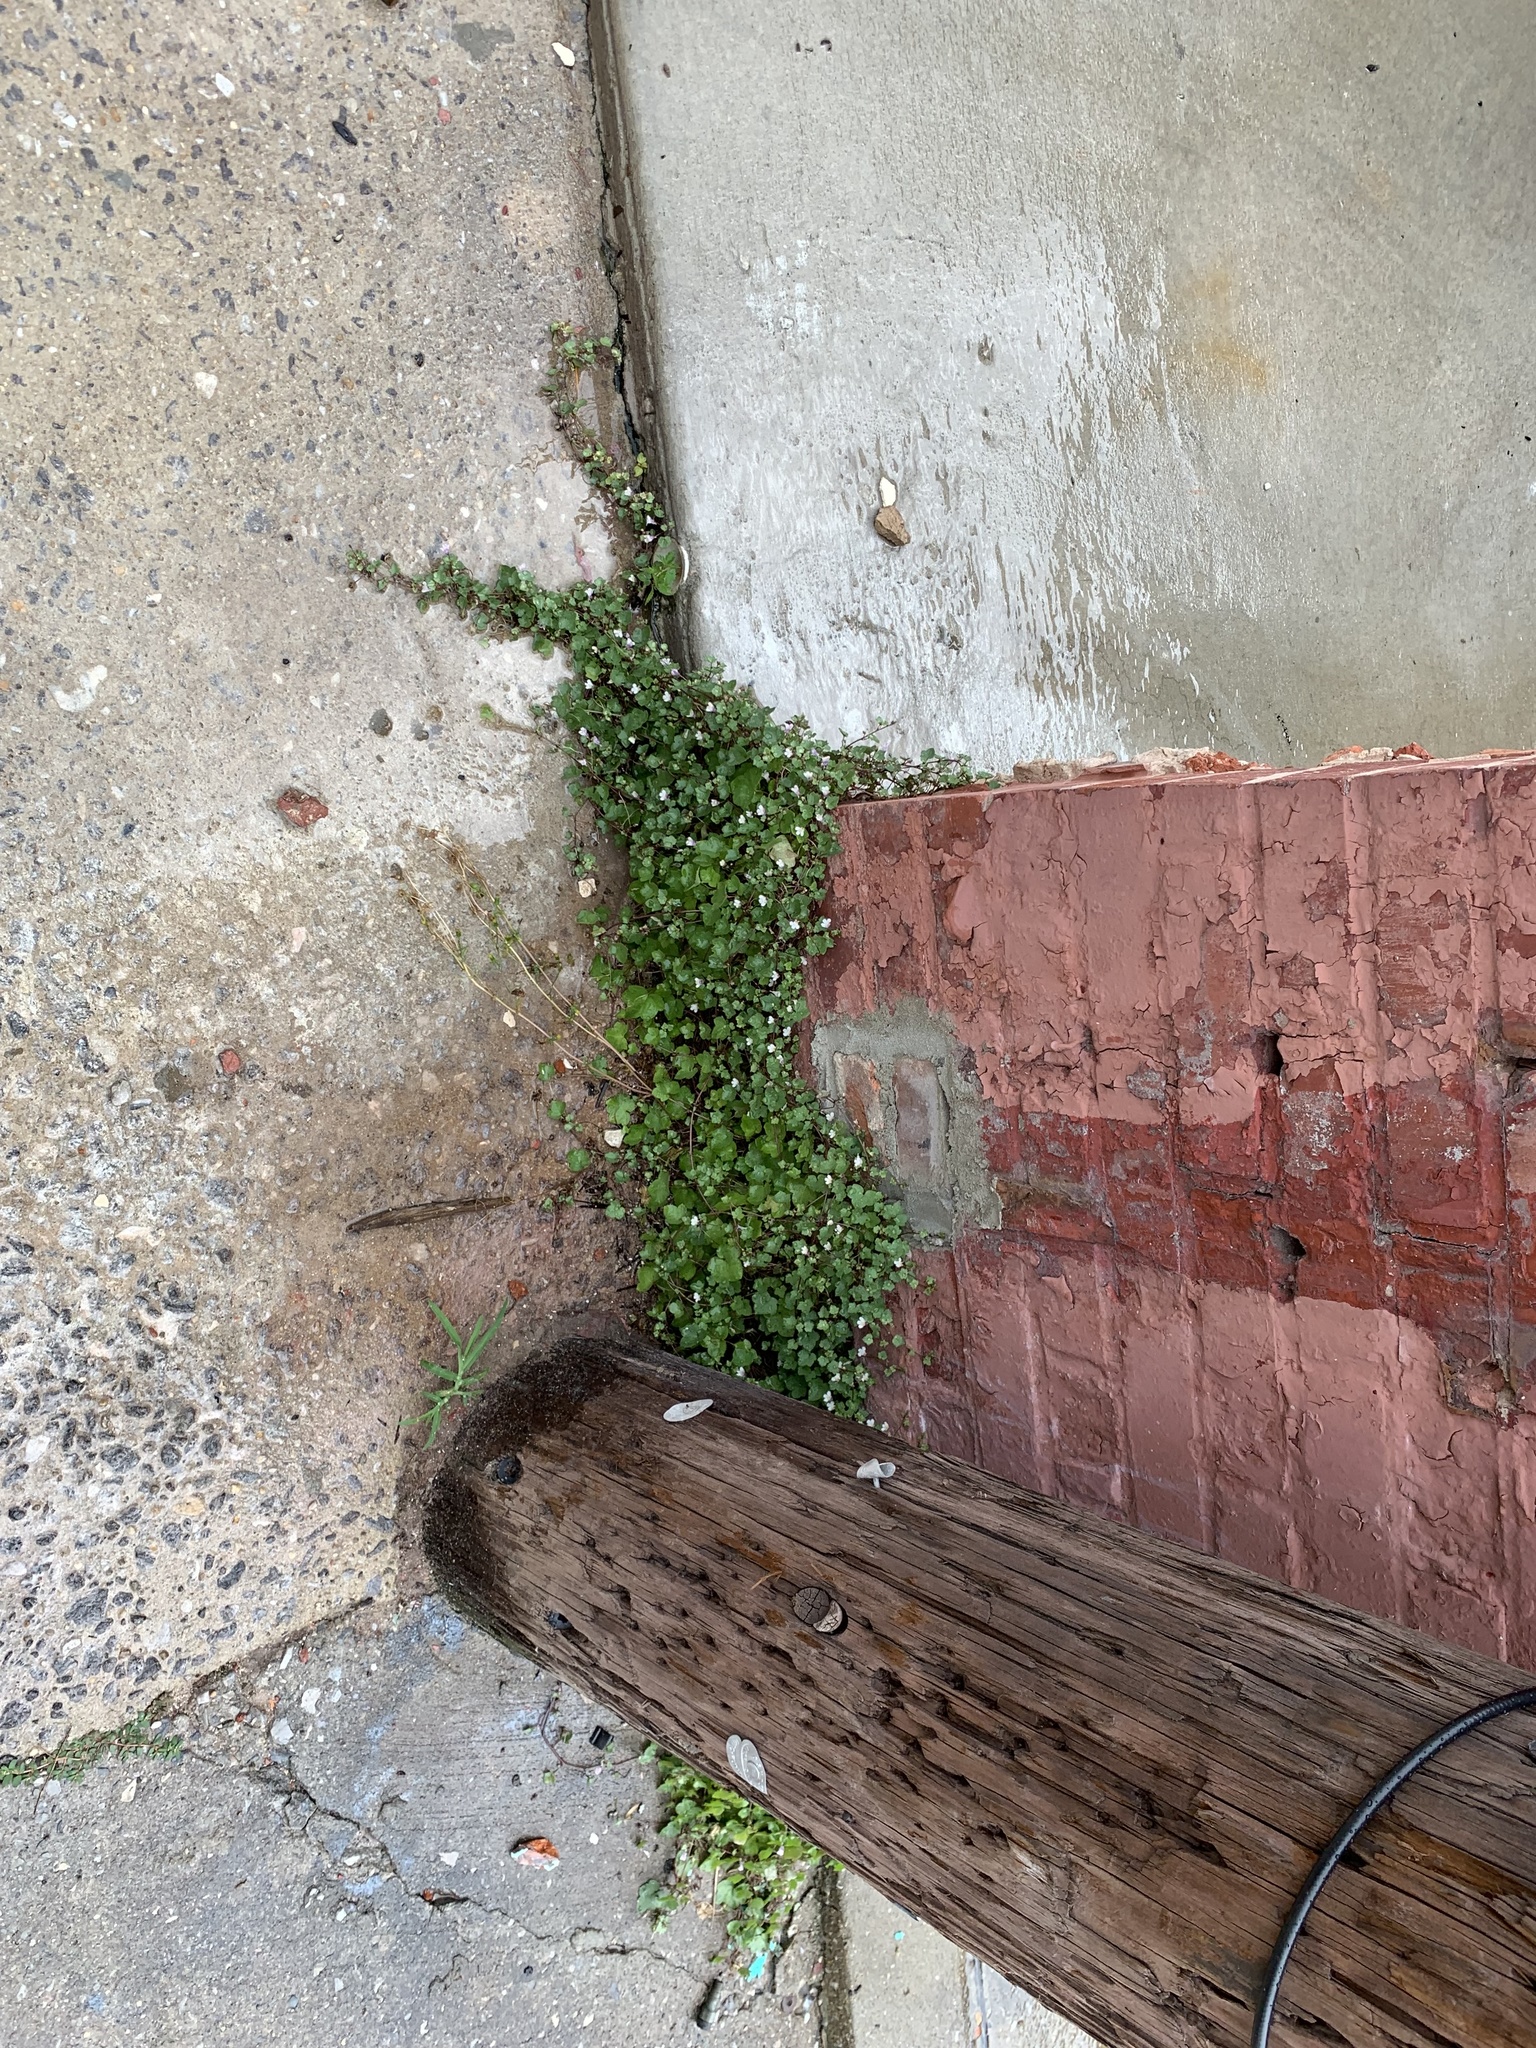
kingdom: Plantae
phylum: Tracheophyta
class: Magnoliopsida
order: Lamiales
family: Plantaginaceae
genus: Cymbalaria
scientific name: Cymbalaria muralis
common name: Ivy-leaved toadflax
